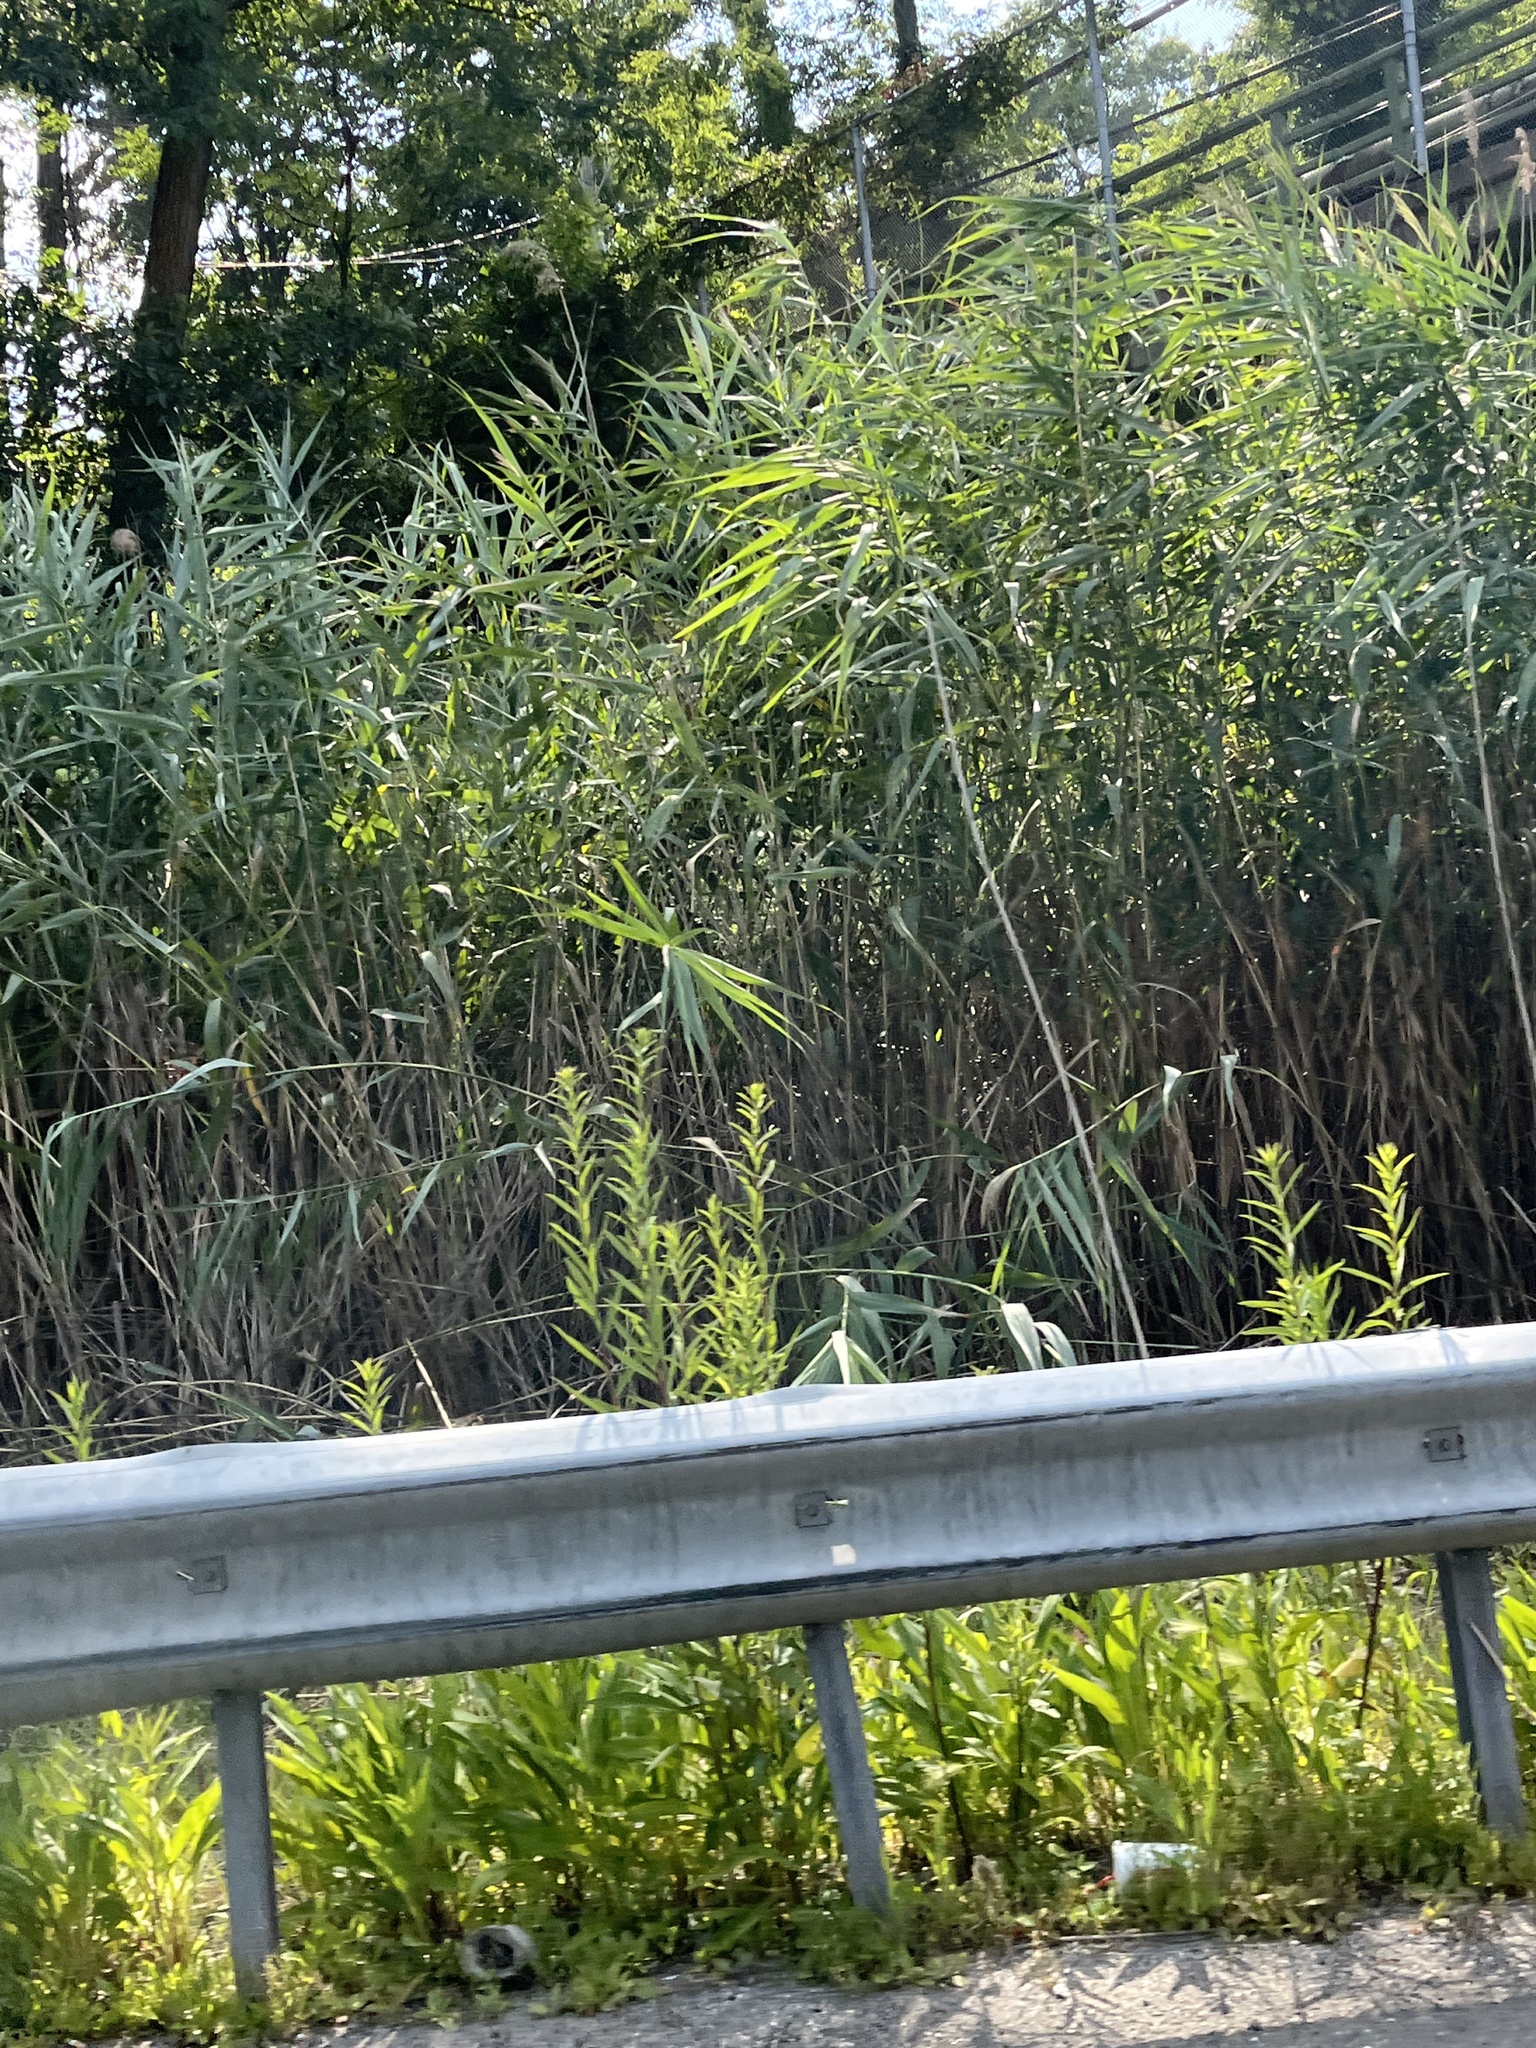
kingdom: Plantae
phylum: Tracheophyta
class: Liliopsida
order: Poales
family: Poaceae
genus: Phragmites
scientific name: Phragmites australis
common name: Common reed
